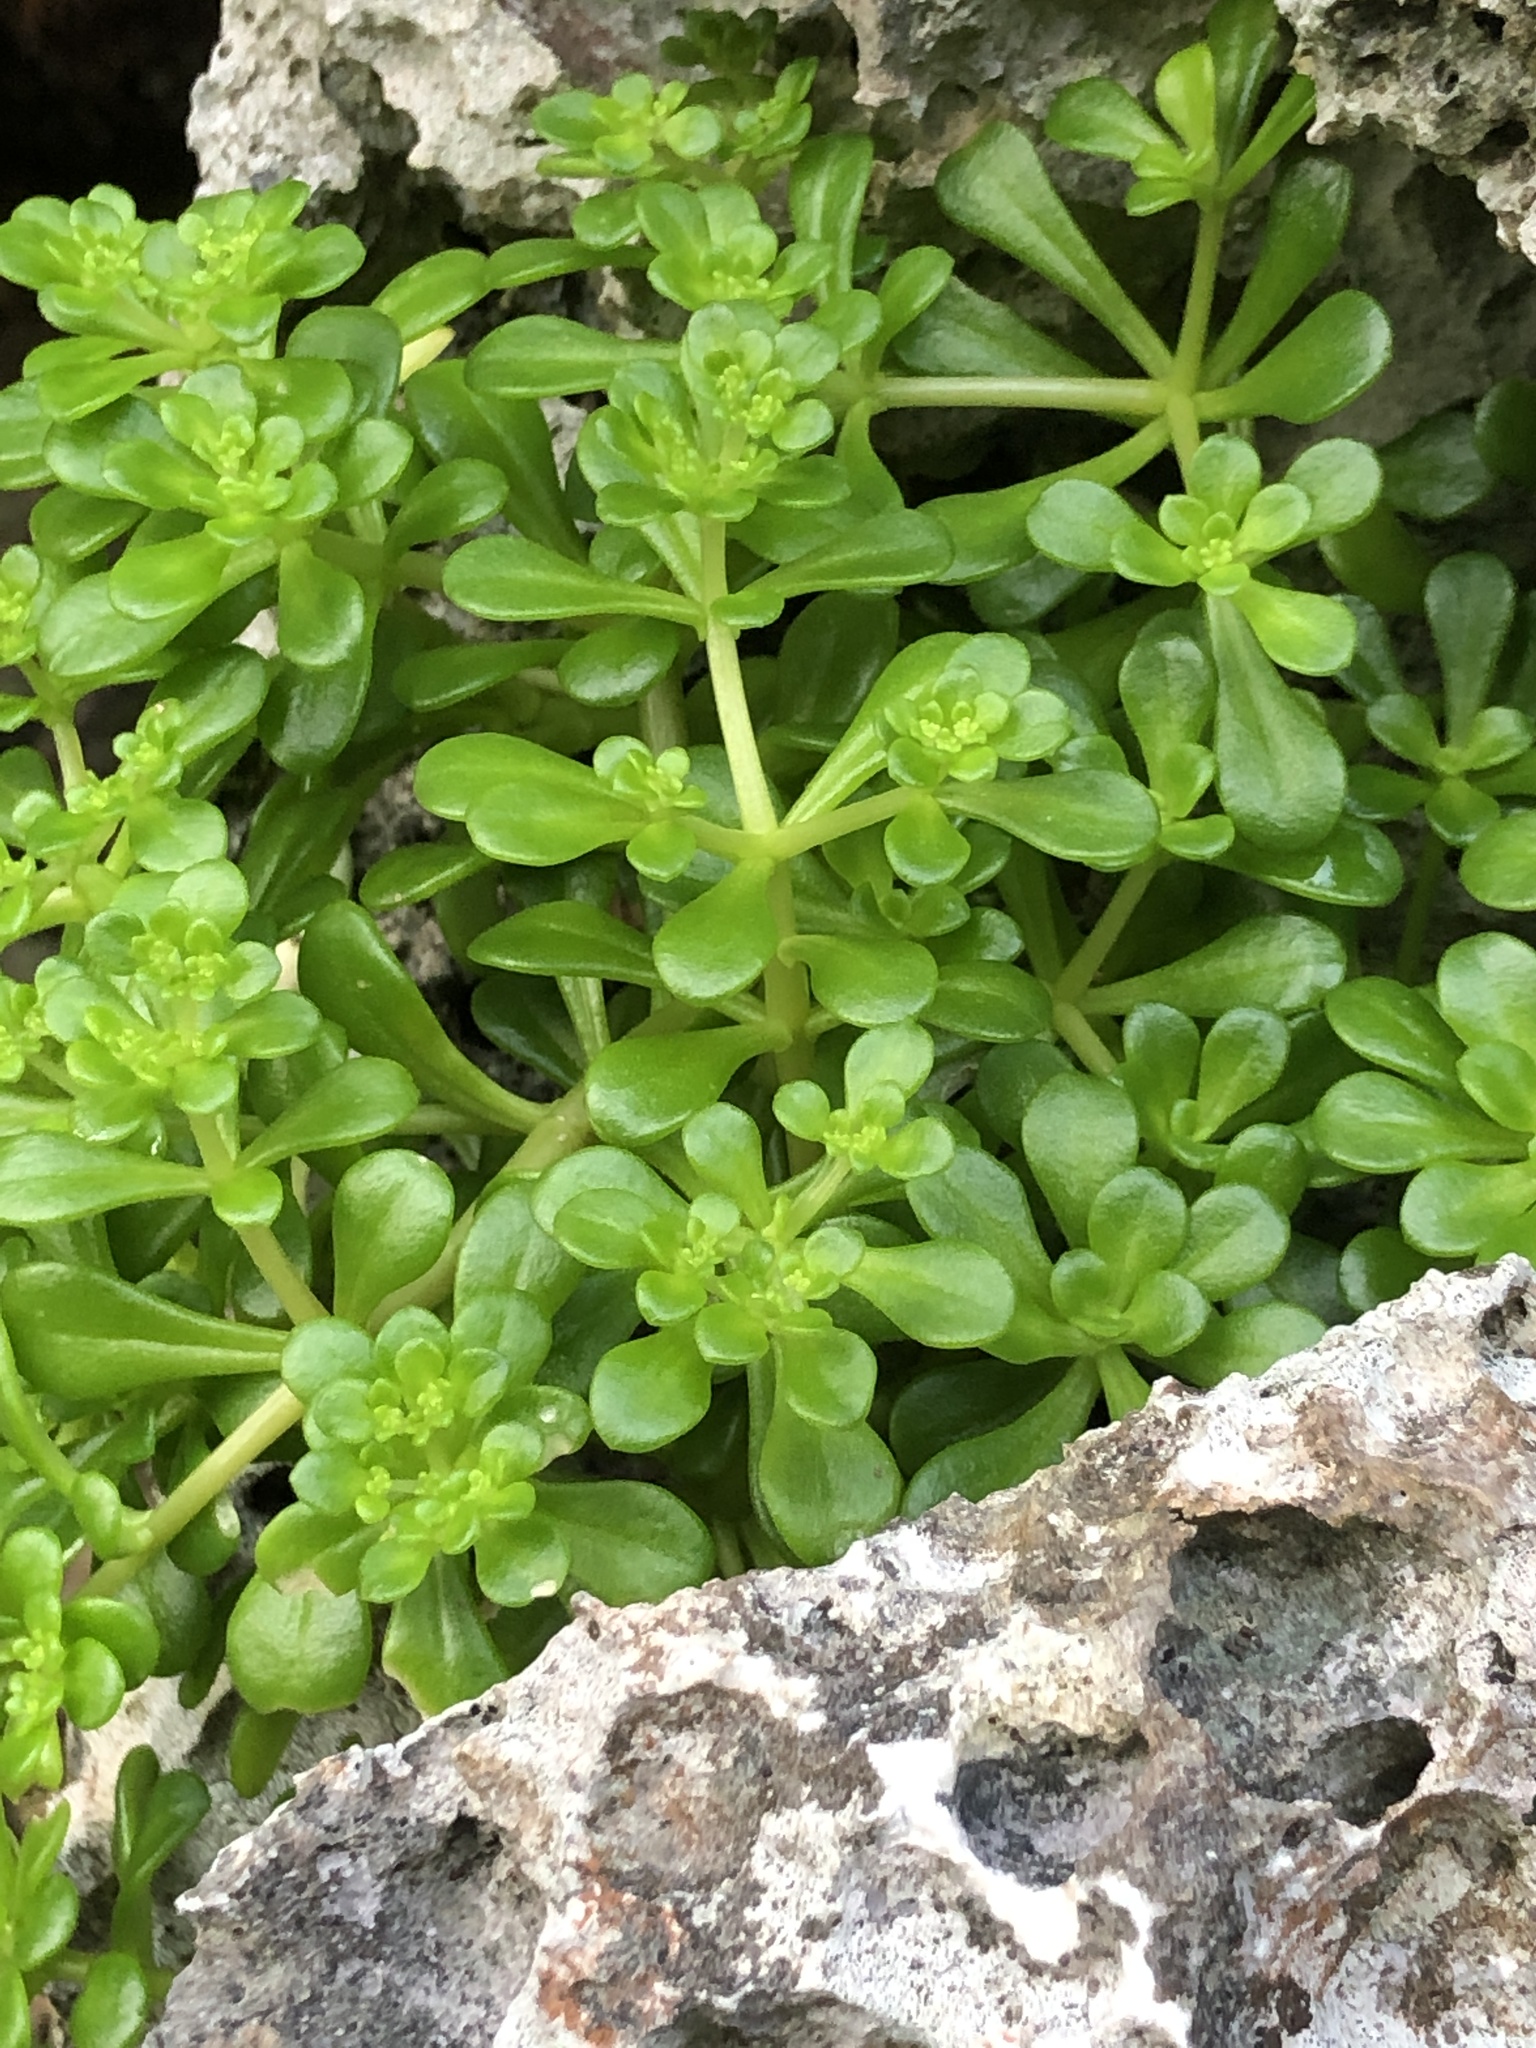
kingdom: Plantae
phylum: Tracheophyta
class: Magnoliopsida
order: Saxifragales
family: Crassulaceae
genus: Sedum
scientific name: Sedum formosanum
